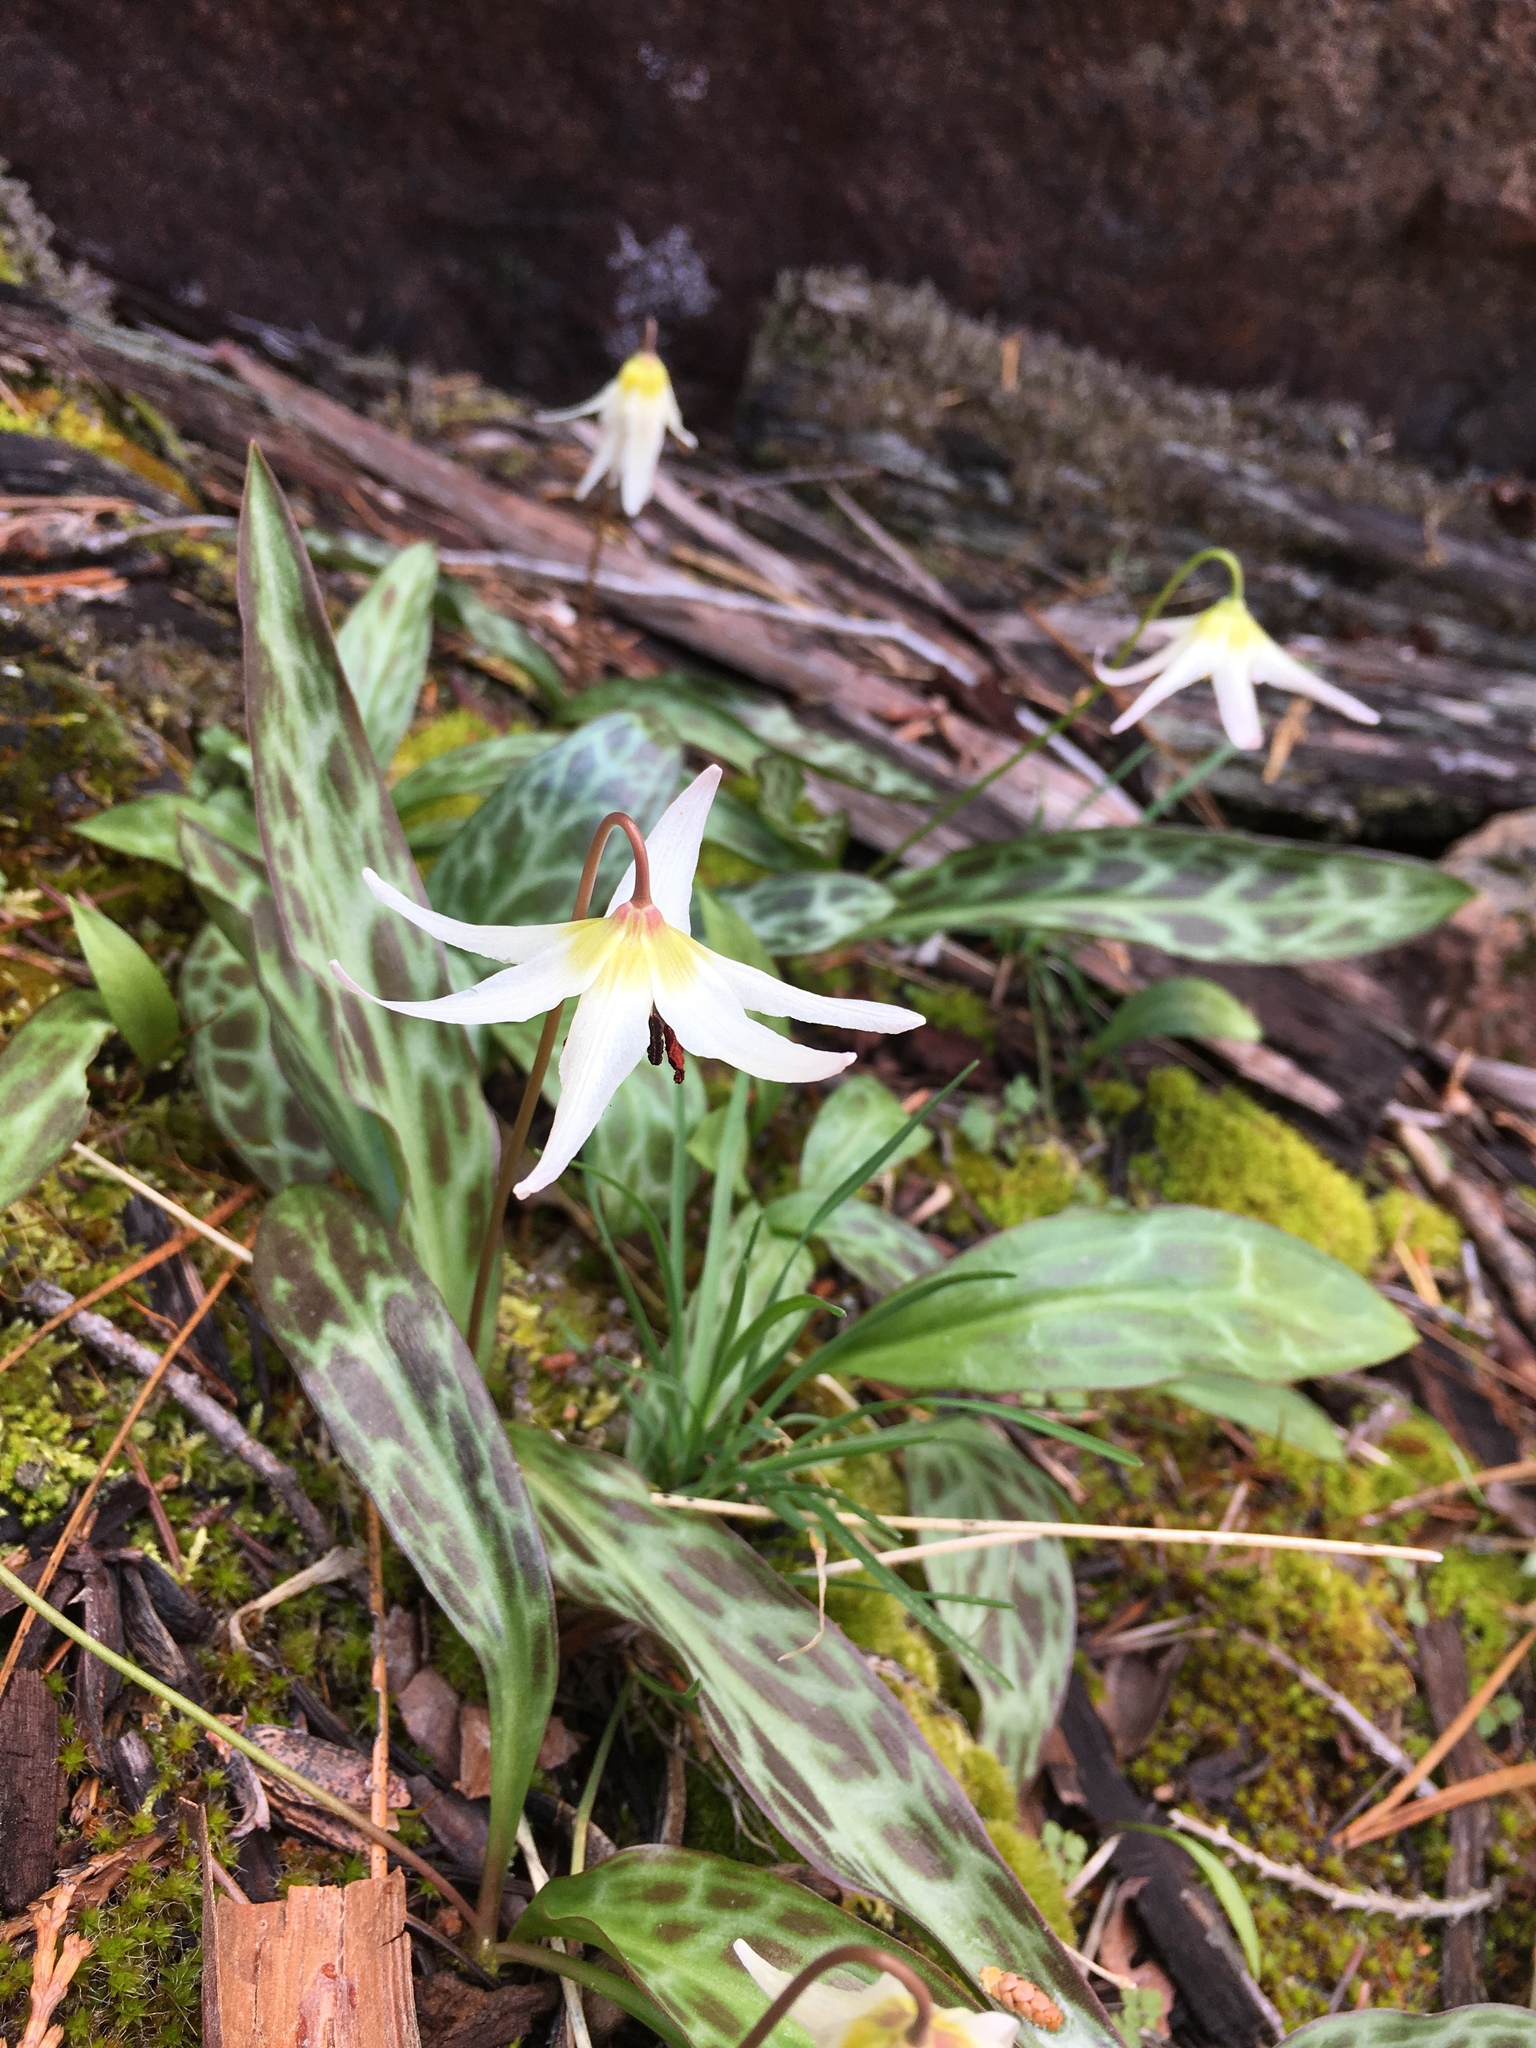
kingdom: Plantae
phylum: Tracheophyta
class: Liliopsida
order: Liliales
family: Liliaceae
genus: Erythronium
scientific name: Erythronium citrinum
